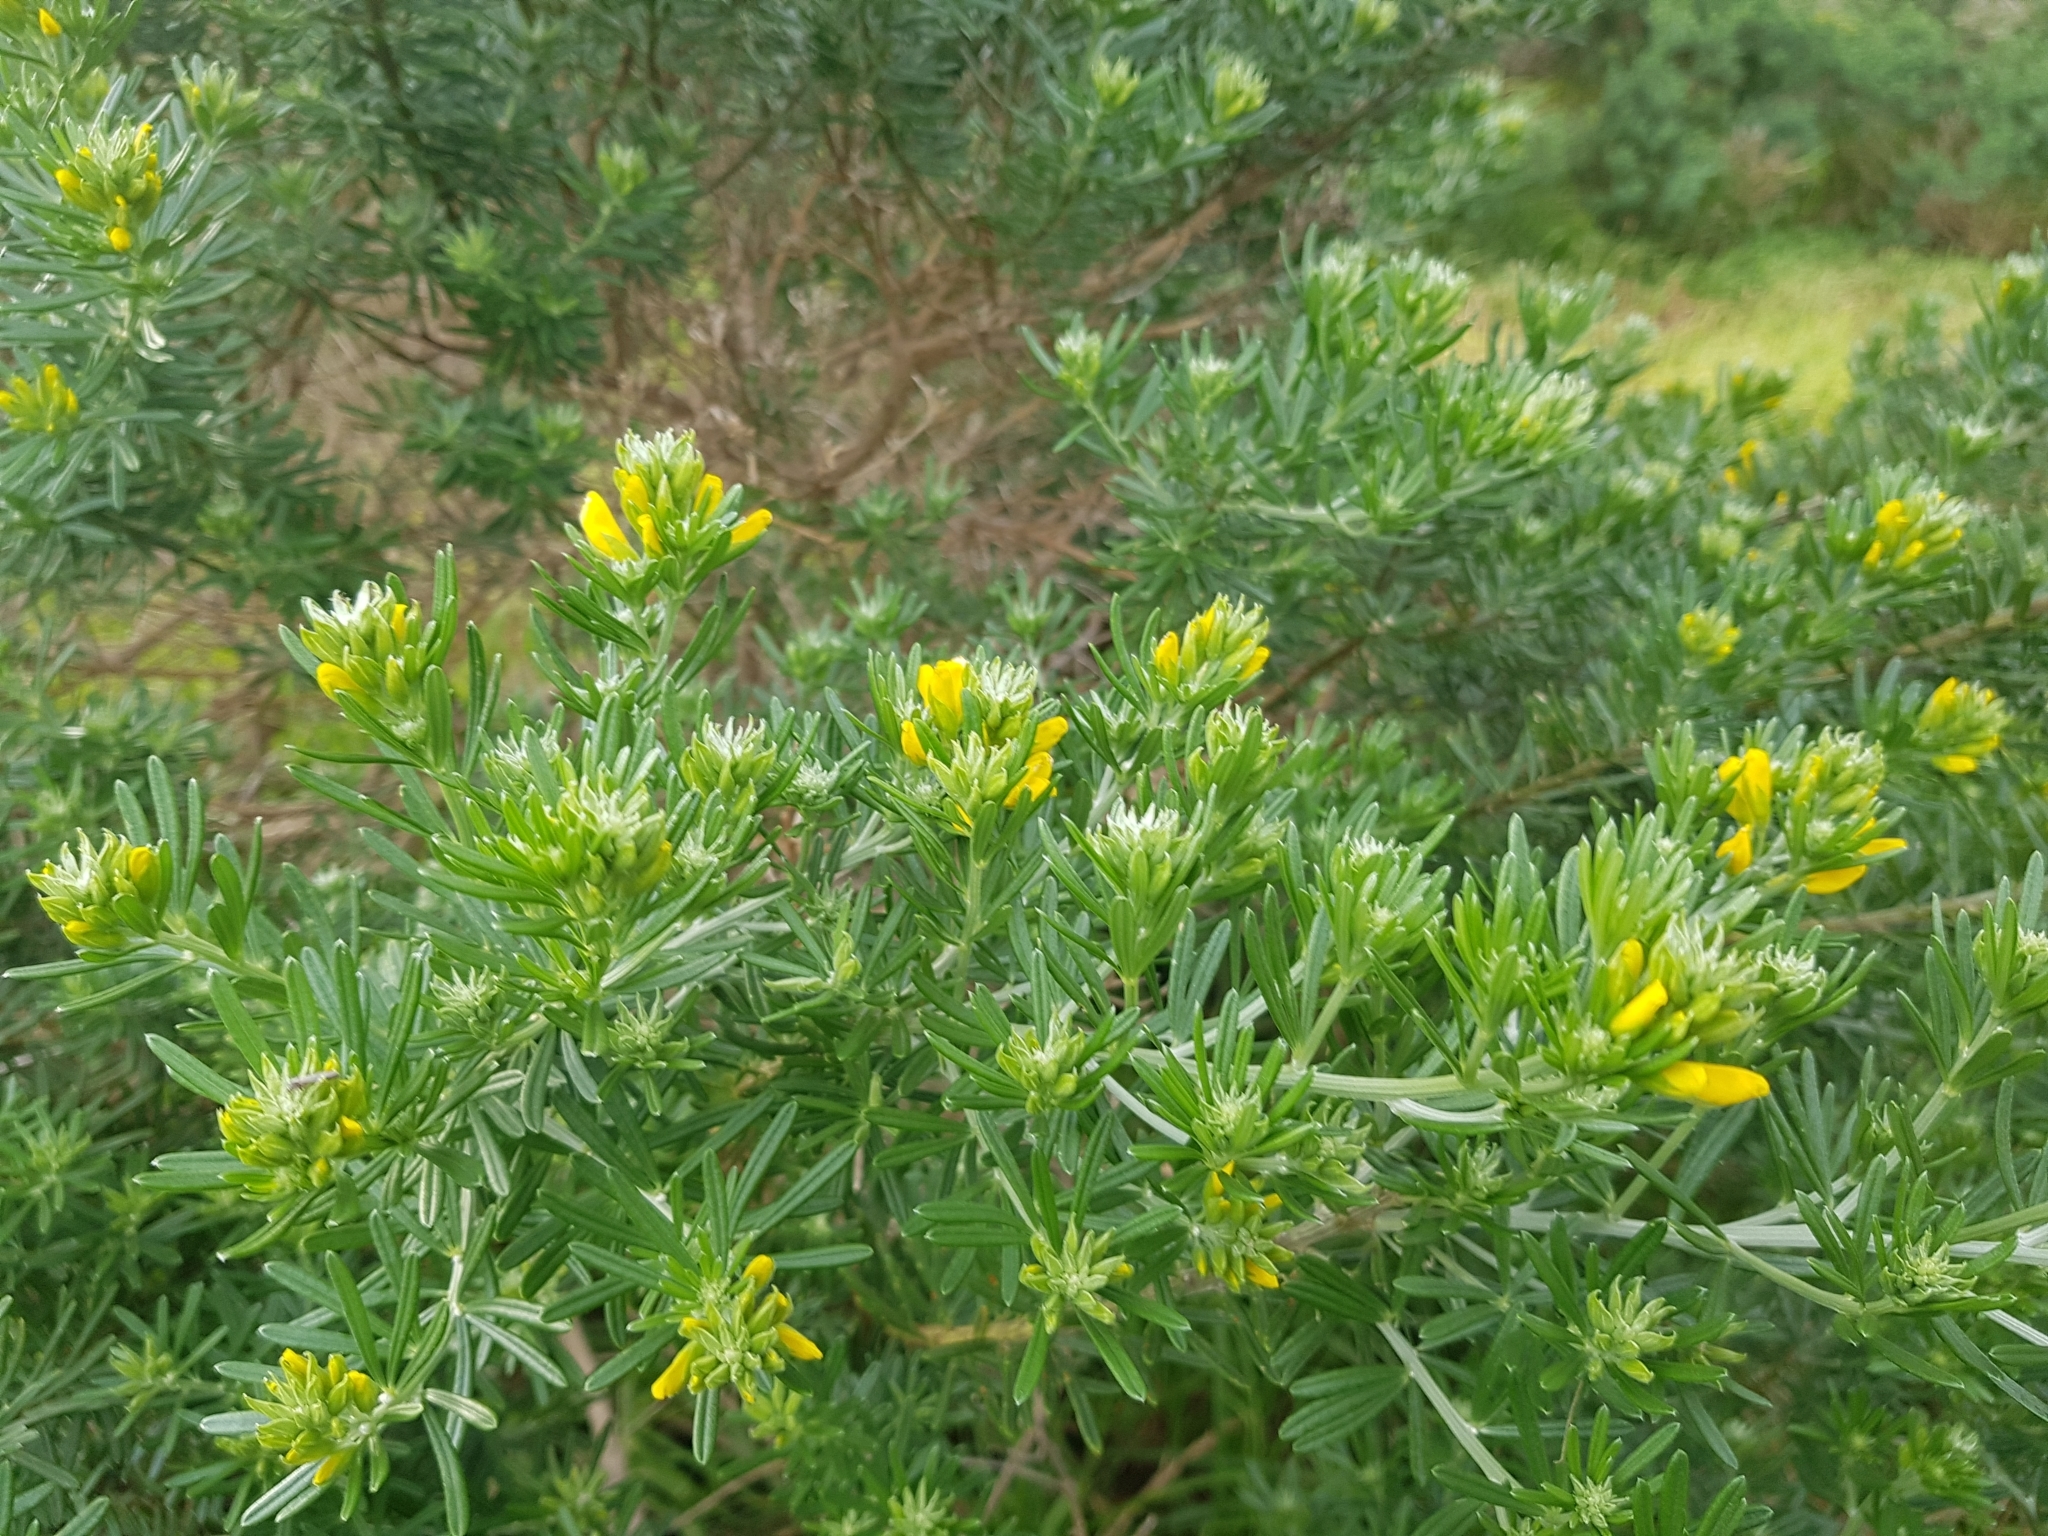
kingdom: Plantae
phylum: Tracheophyta
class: Magnoliopsida
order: Fabales
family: Fabaceae
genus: Genista
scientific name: Genista linifolia
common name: Mediterranean broom
